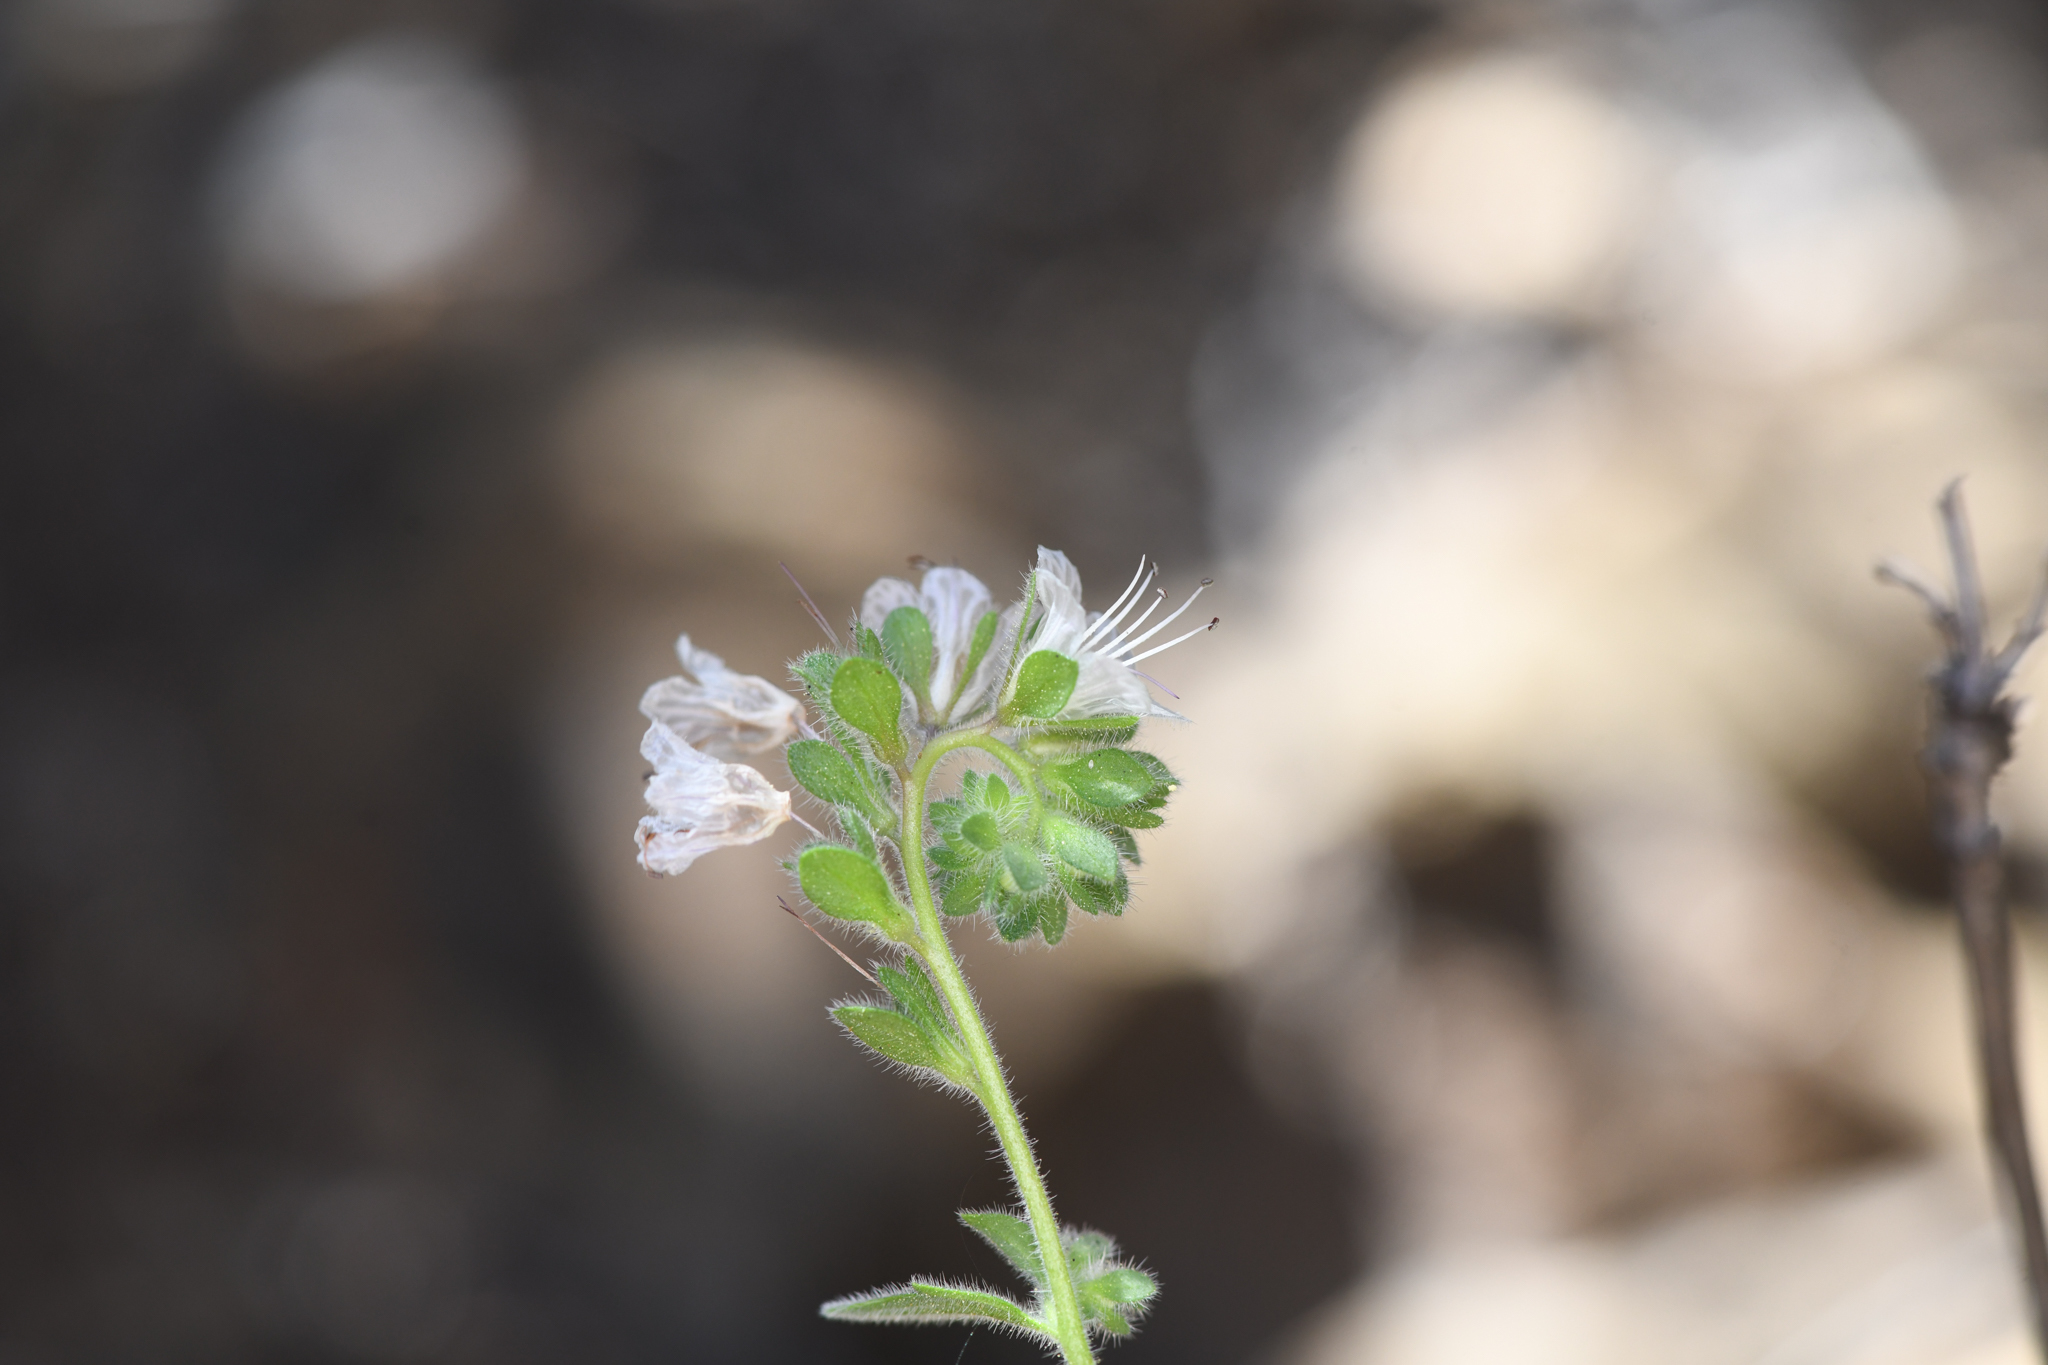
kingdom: Plantae
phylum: Tracheophyta
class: Magnoliopsida
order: Boraginales
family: Hydrophyllaceae
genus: Phacelia
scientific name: Phacelia grisea
